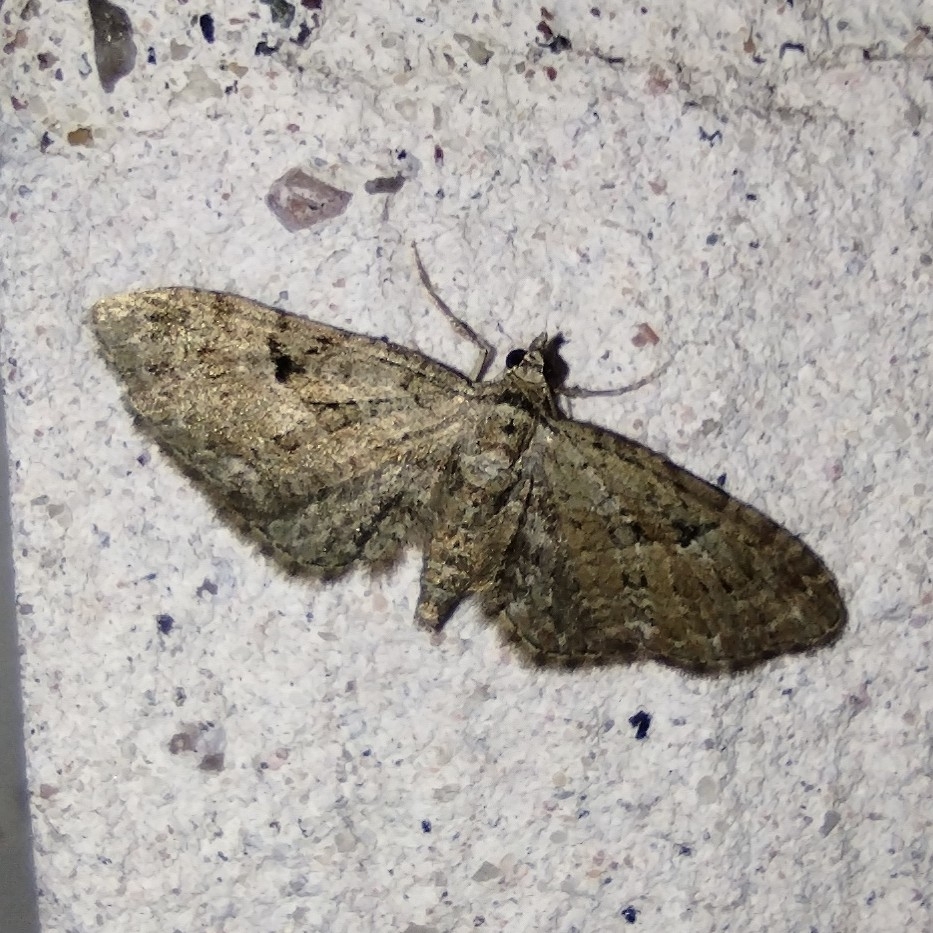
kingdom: Animalia
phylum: Arthropoda
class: Insecta
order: Lepidoptera
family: Geometridae
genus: Eupithecia
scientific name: Eupithecia pusillata
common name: Juniper pug
